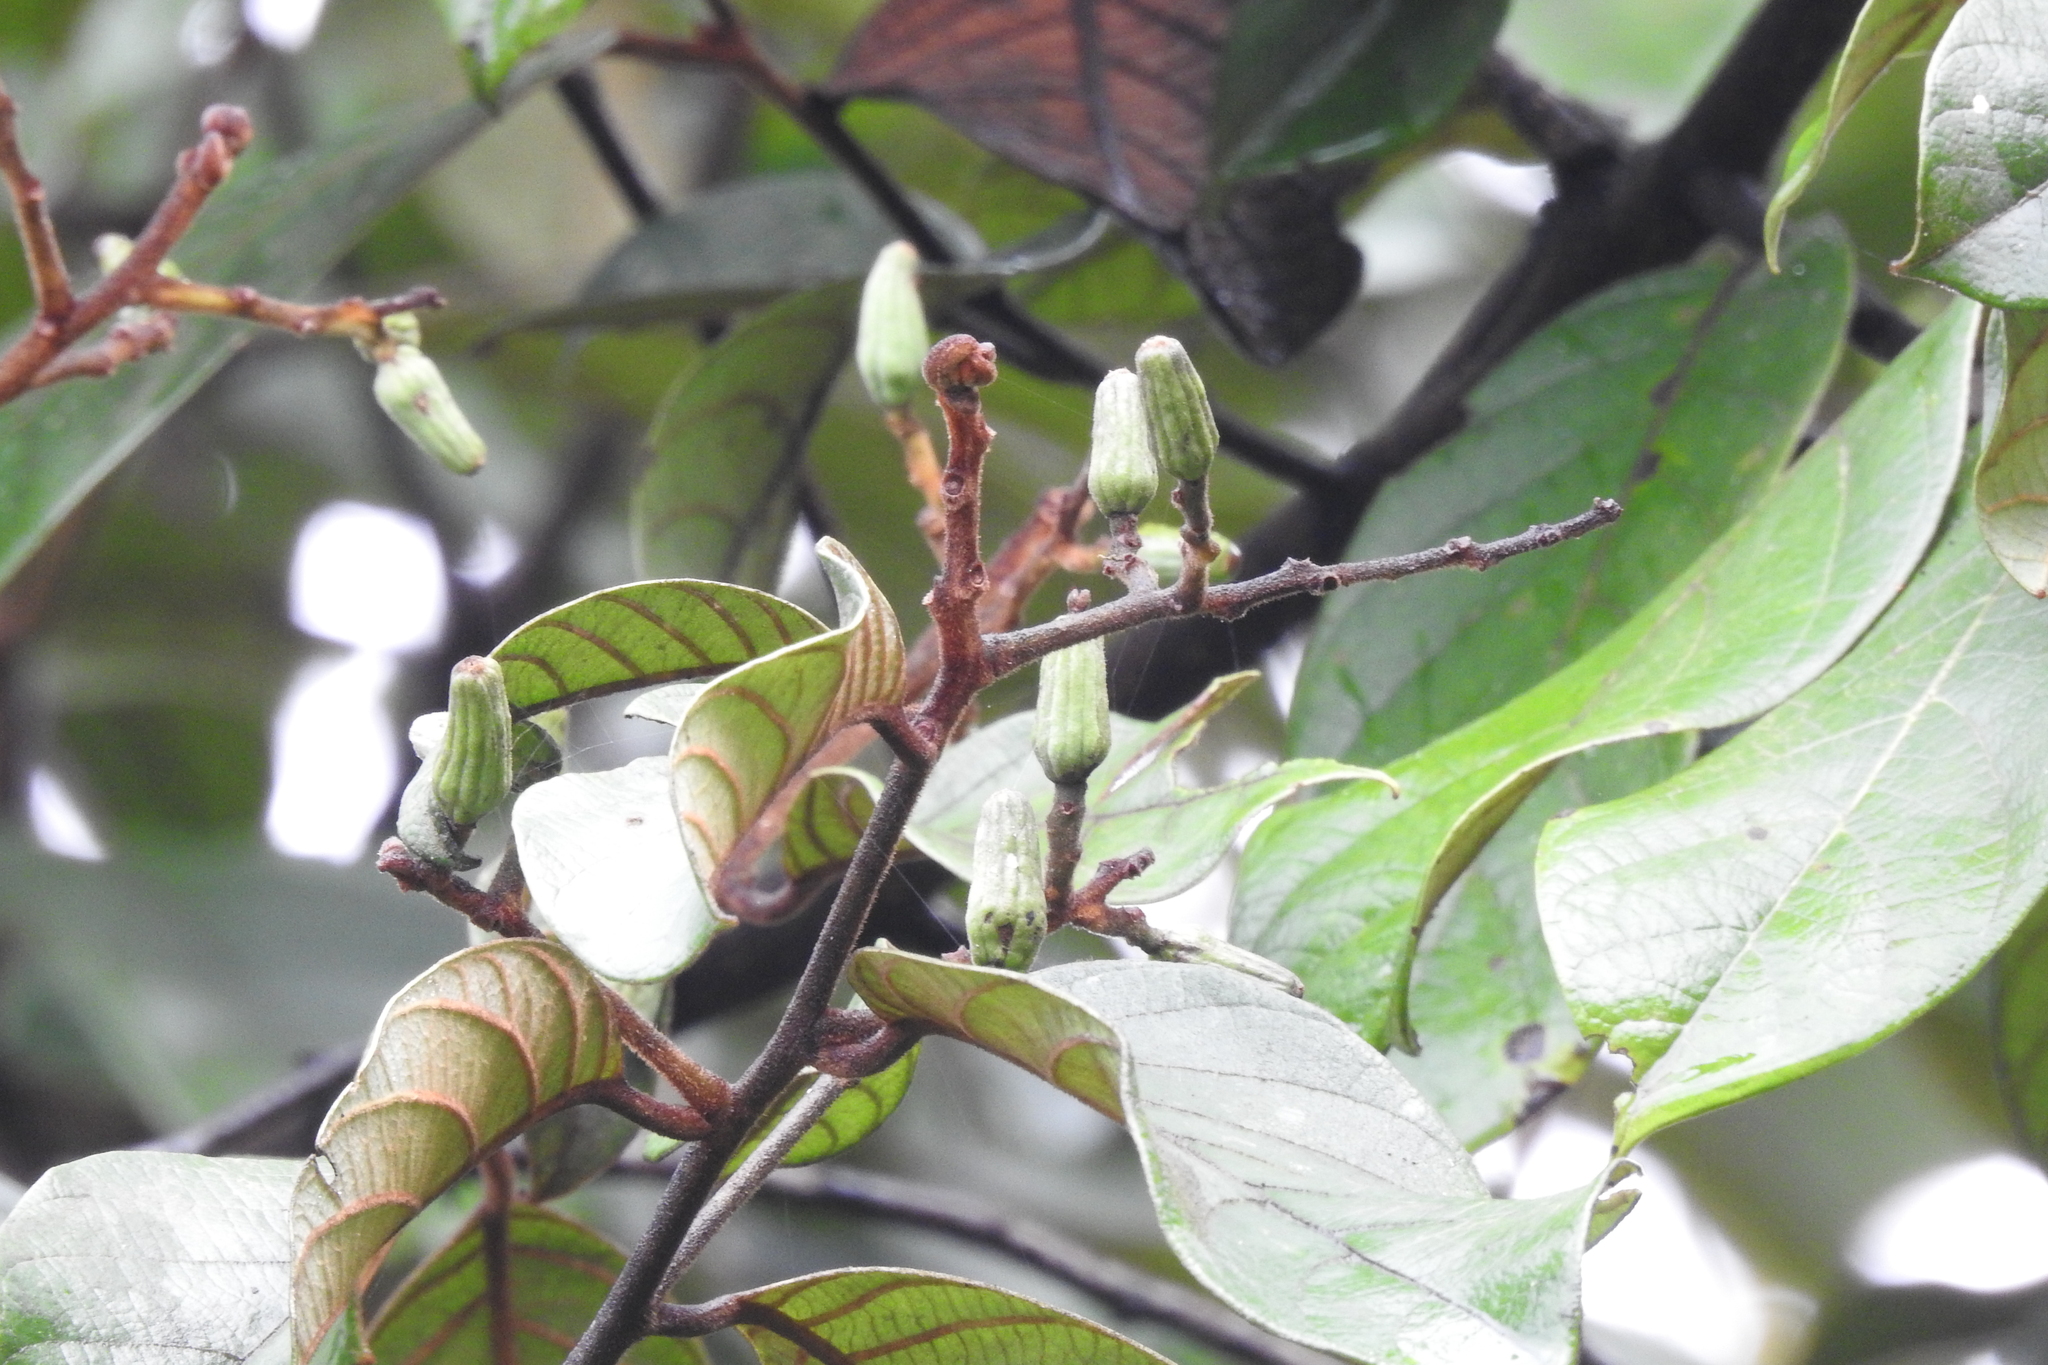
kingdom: Plantae
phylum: Tracheophyta
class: Magnoliopsida
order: Laurales
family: Lauraceae
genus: Cryptocarya
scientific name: Cryptocarya anamalayana
